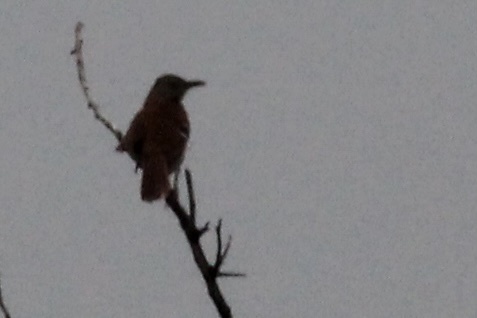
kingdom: Animalia
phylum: Chordata
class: Aves
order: Passeriformes
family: Mimidae
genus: Toxostoma
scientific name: Toxostoma rufum
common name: Brown thrasher
